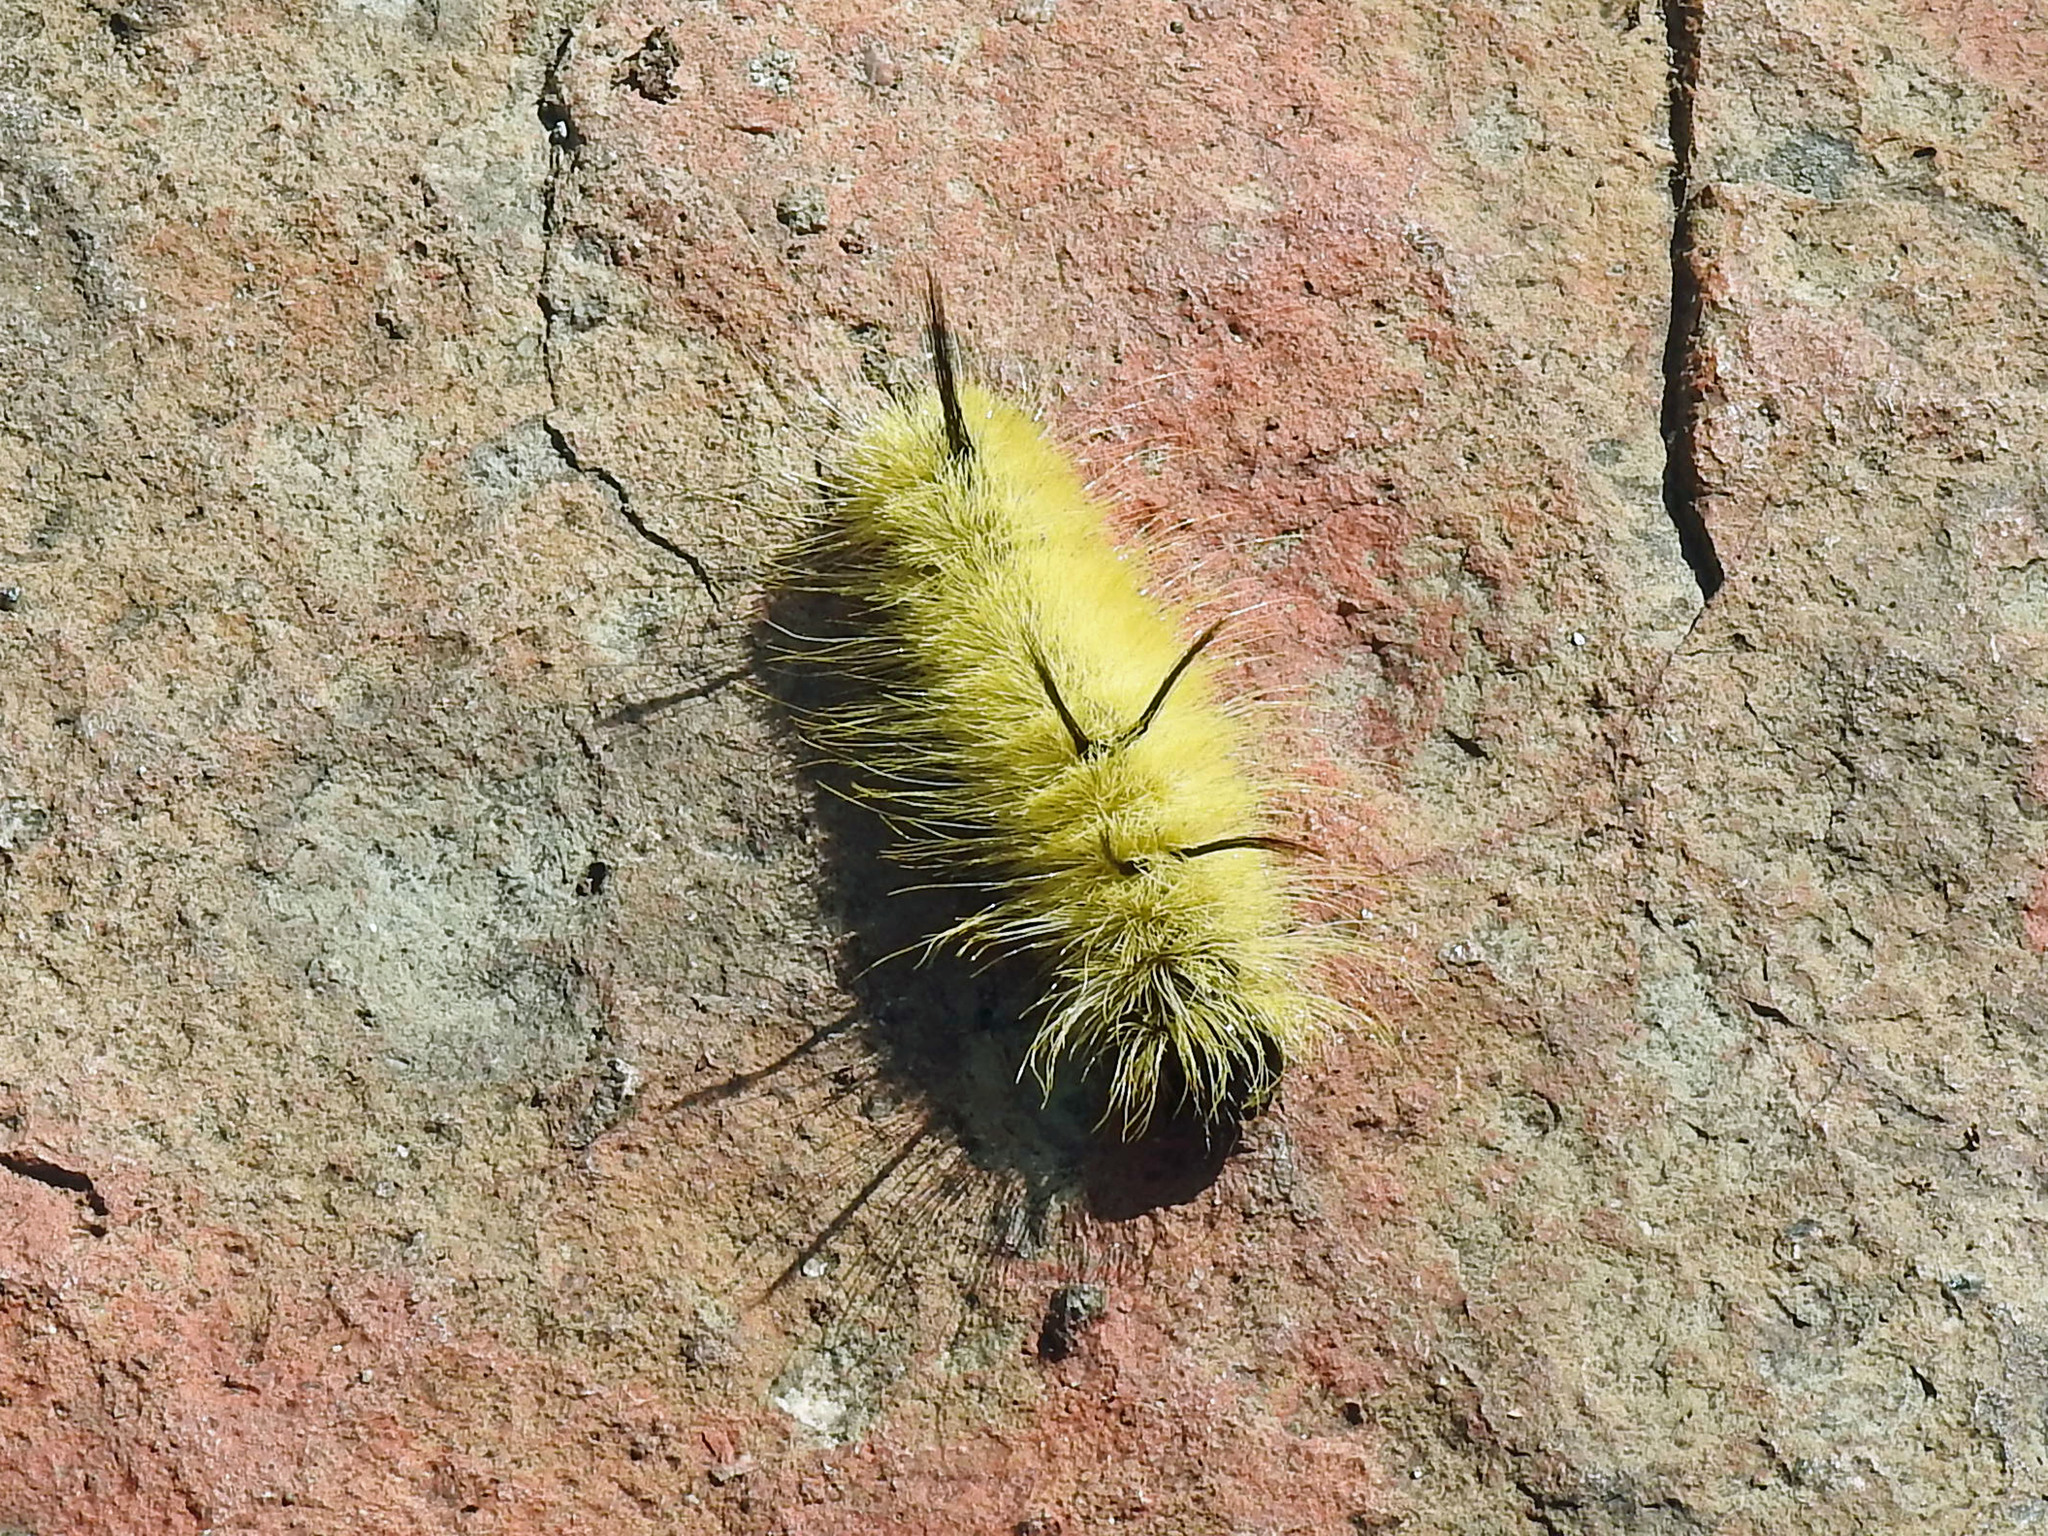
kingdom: Animalia
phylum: Arthropoda
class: Insecta
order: Lepidoptera
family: Noctuidae
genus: Acronicta
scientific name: Acronicta americana
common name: American dagger
